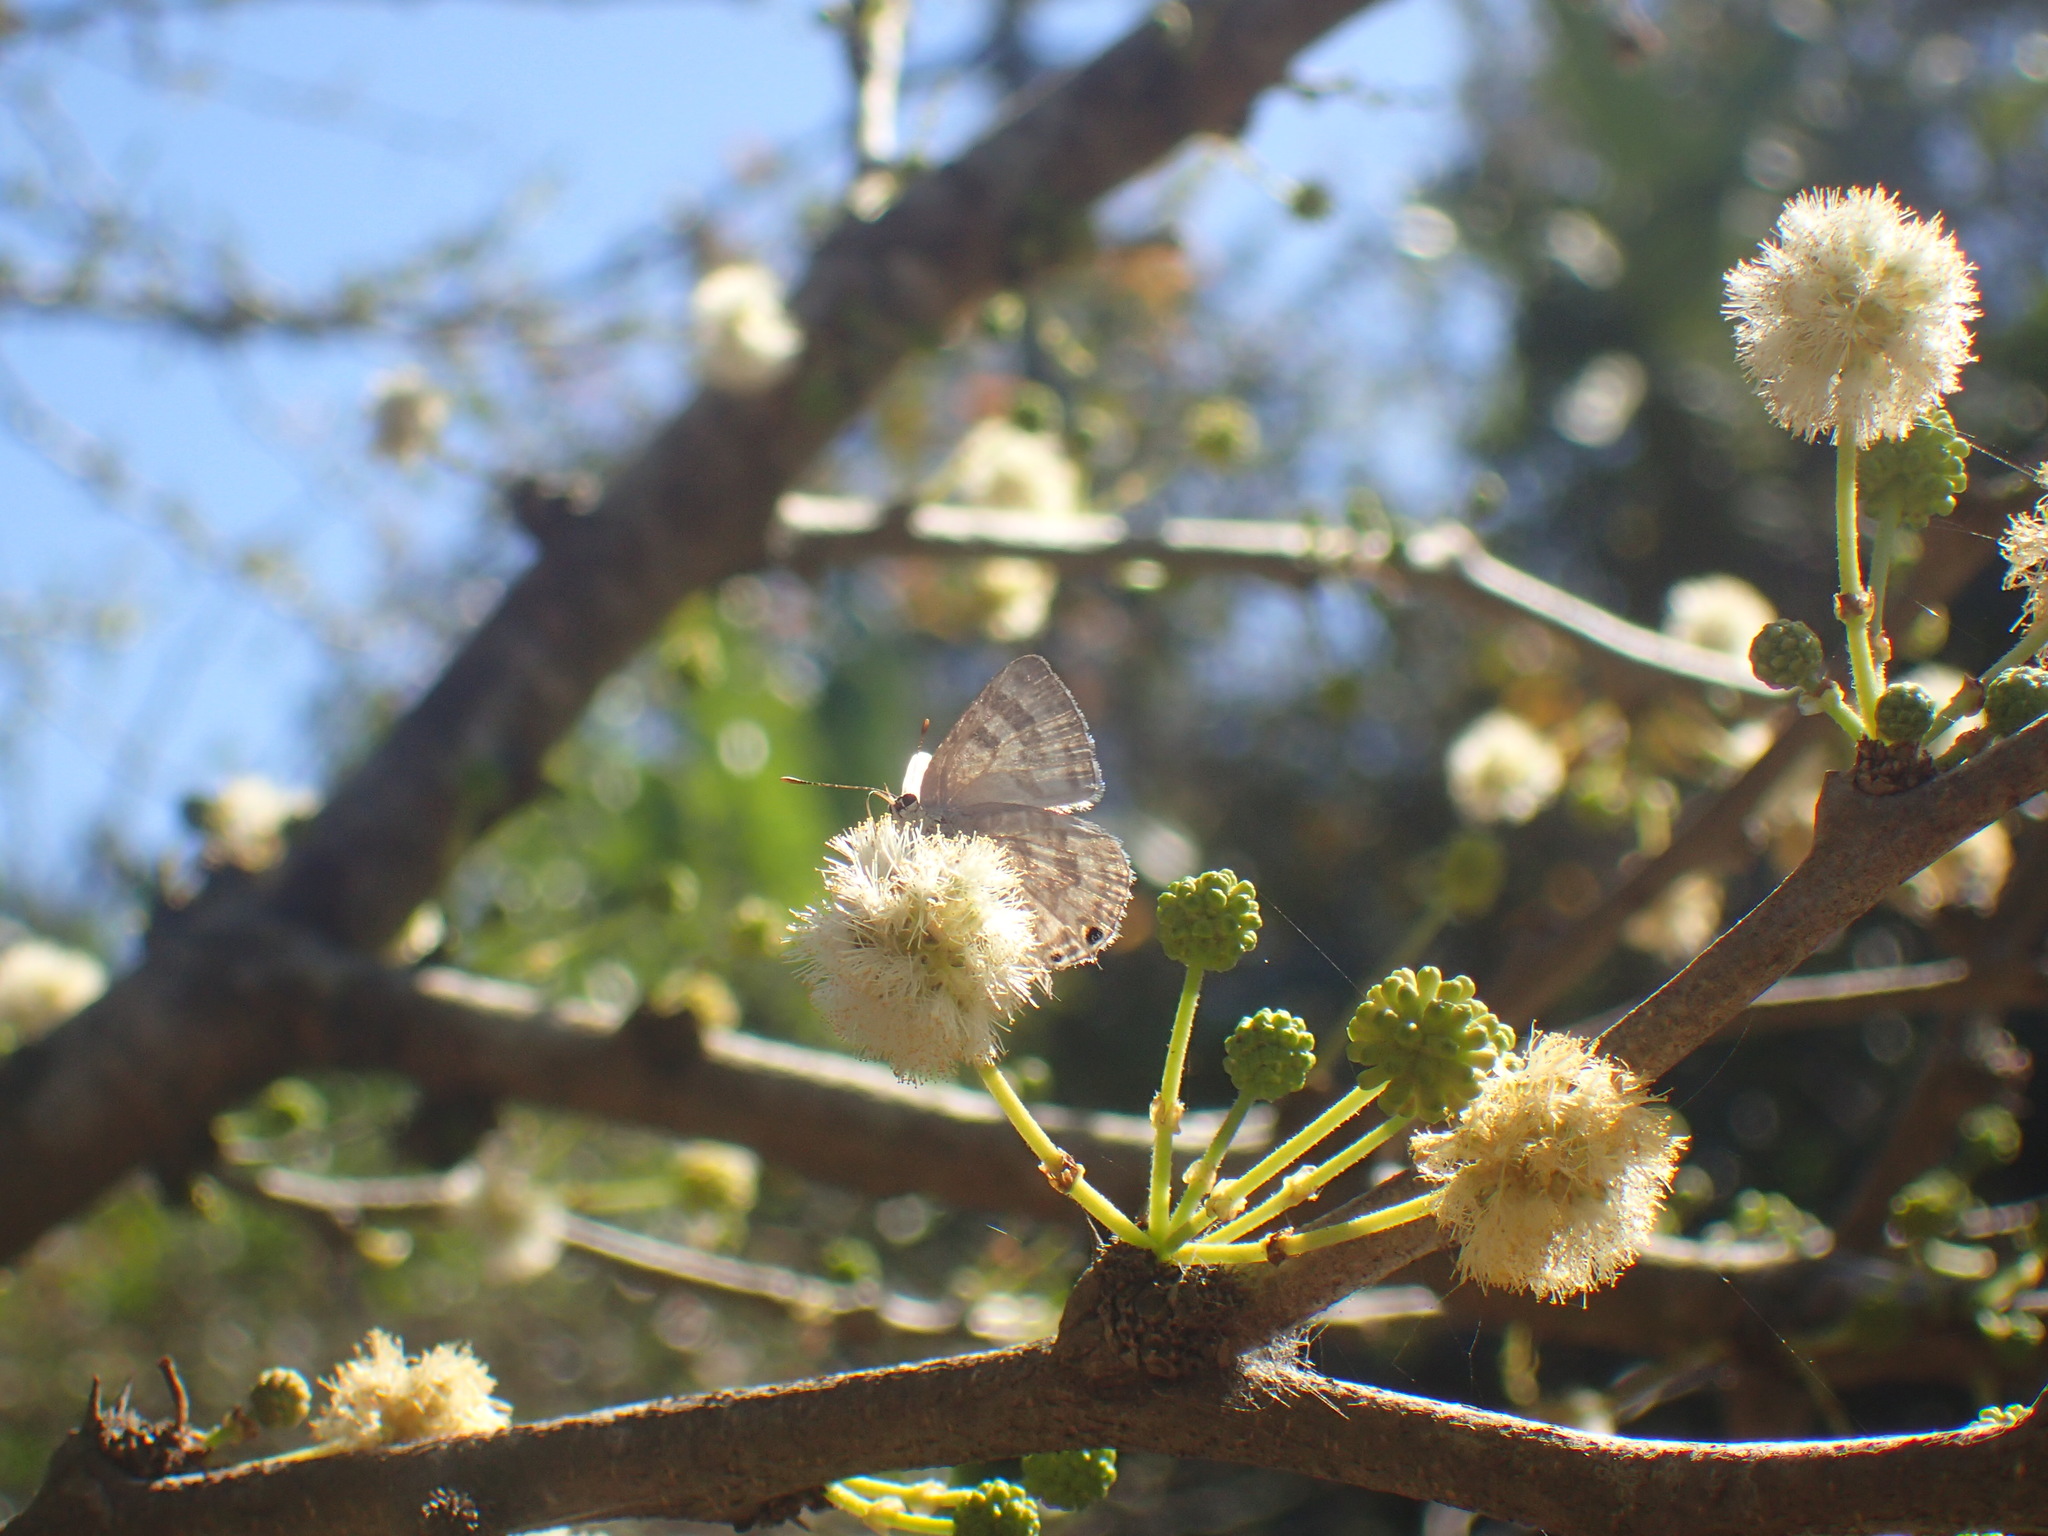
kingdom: Animalia
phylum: Arthropoda
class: Insecta
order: Lepidoptera
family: Lycaenidae
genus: Anthene
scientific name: Anthene definita
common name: Common ciliate blue
